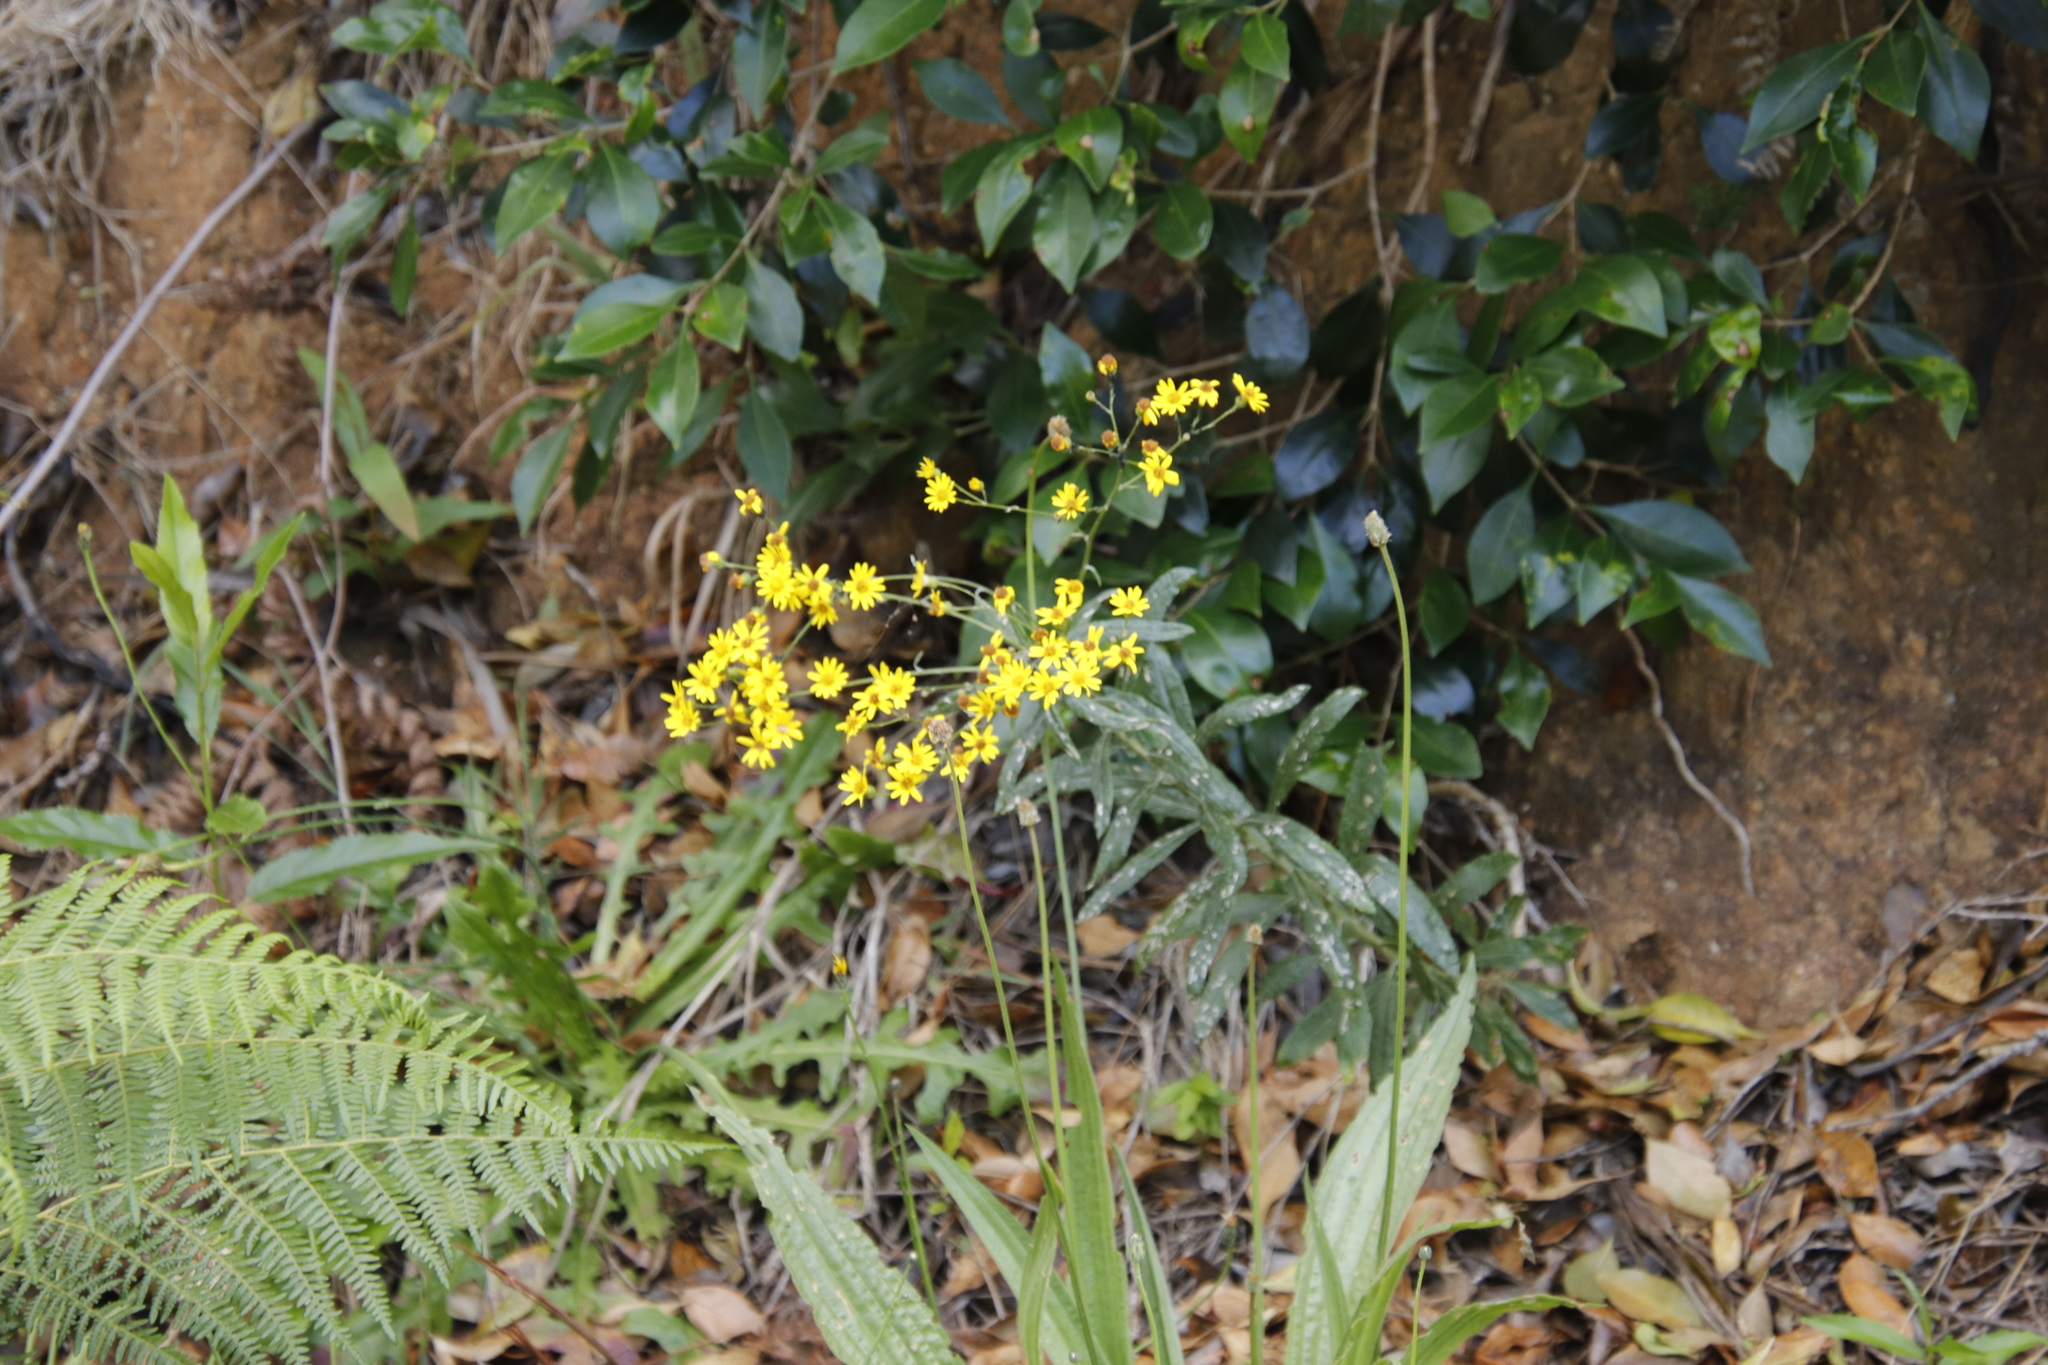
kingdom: Plantae
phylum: Tracheophyta
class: Magnoliopsida
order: Asterales
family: Asteraceae
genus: Senecio
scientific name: Senecio pterophorus
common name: Shoddy ragwort
